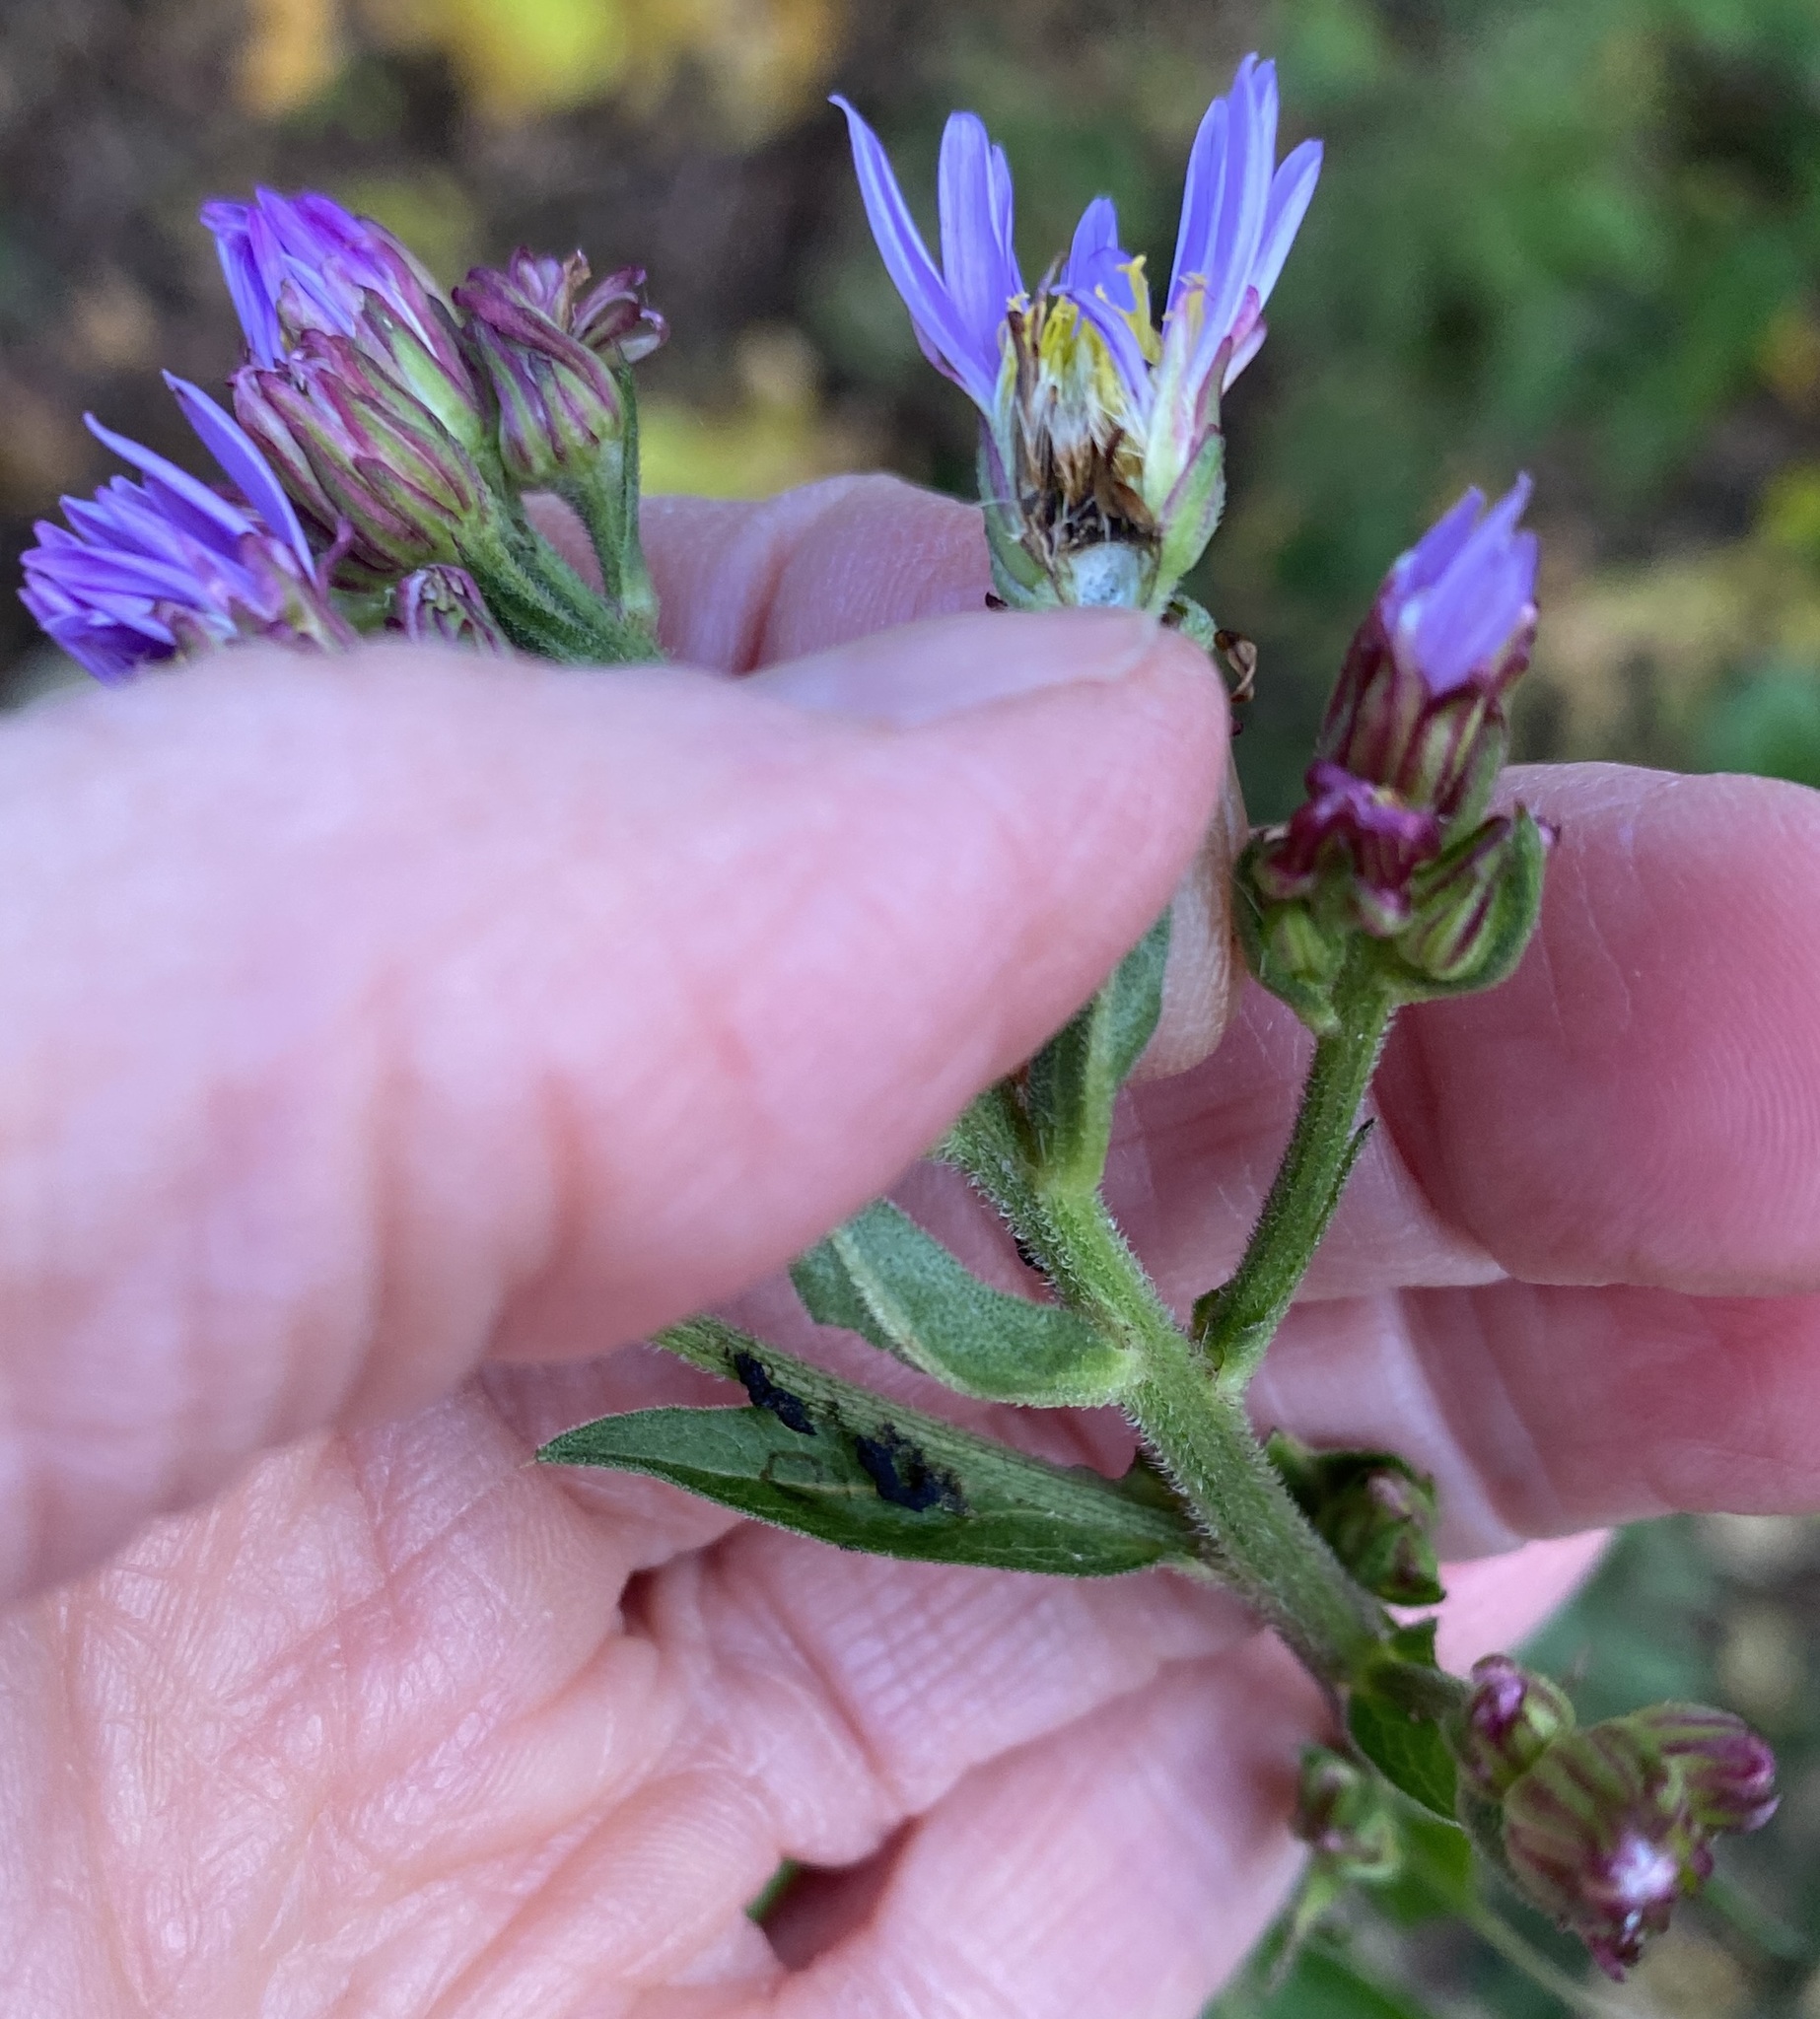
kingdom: Plantae
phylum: Tracheophyta
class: Magnoliopsida
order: Asterales
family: Asteraceae
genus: Aster
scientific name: Aster tataricus
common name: Tatarian aster
